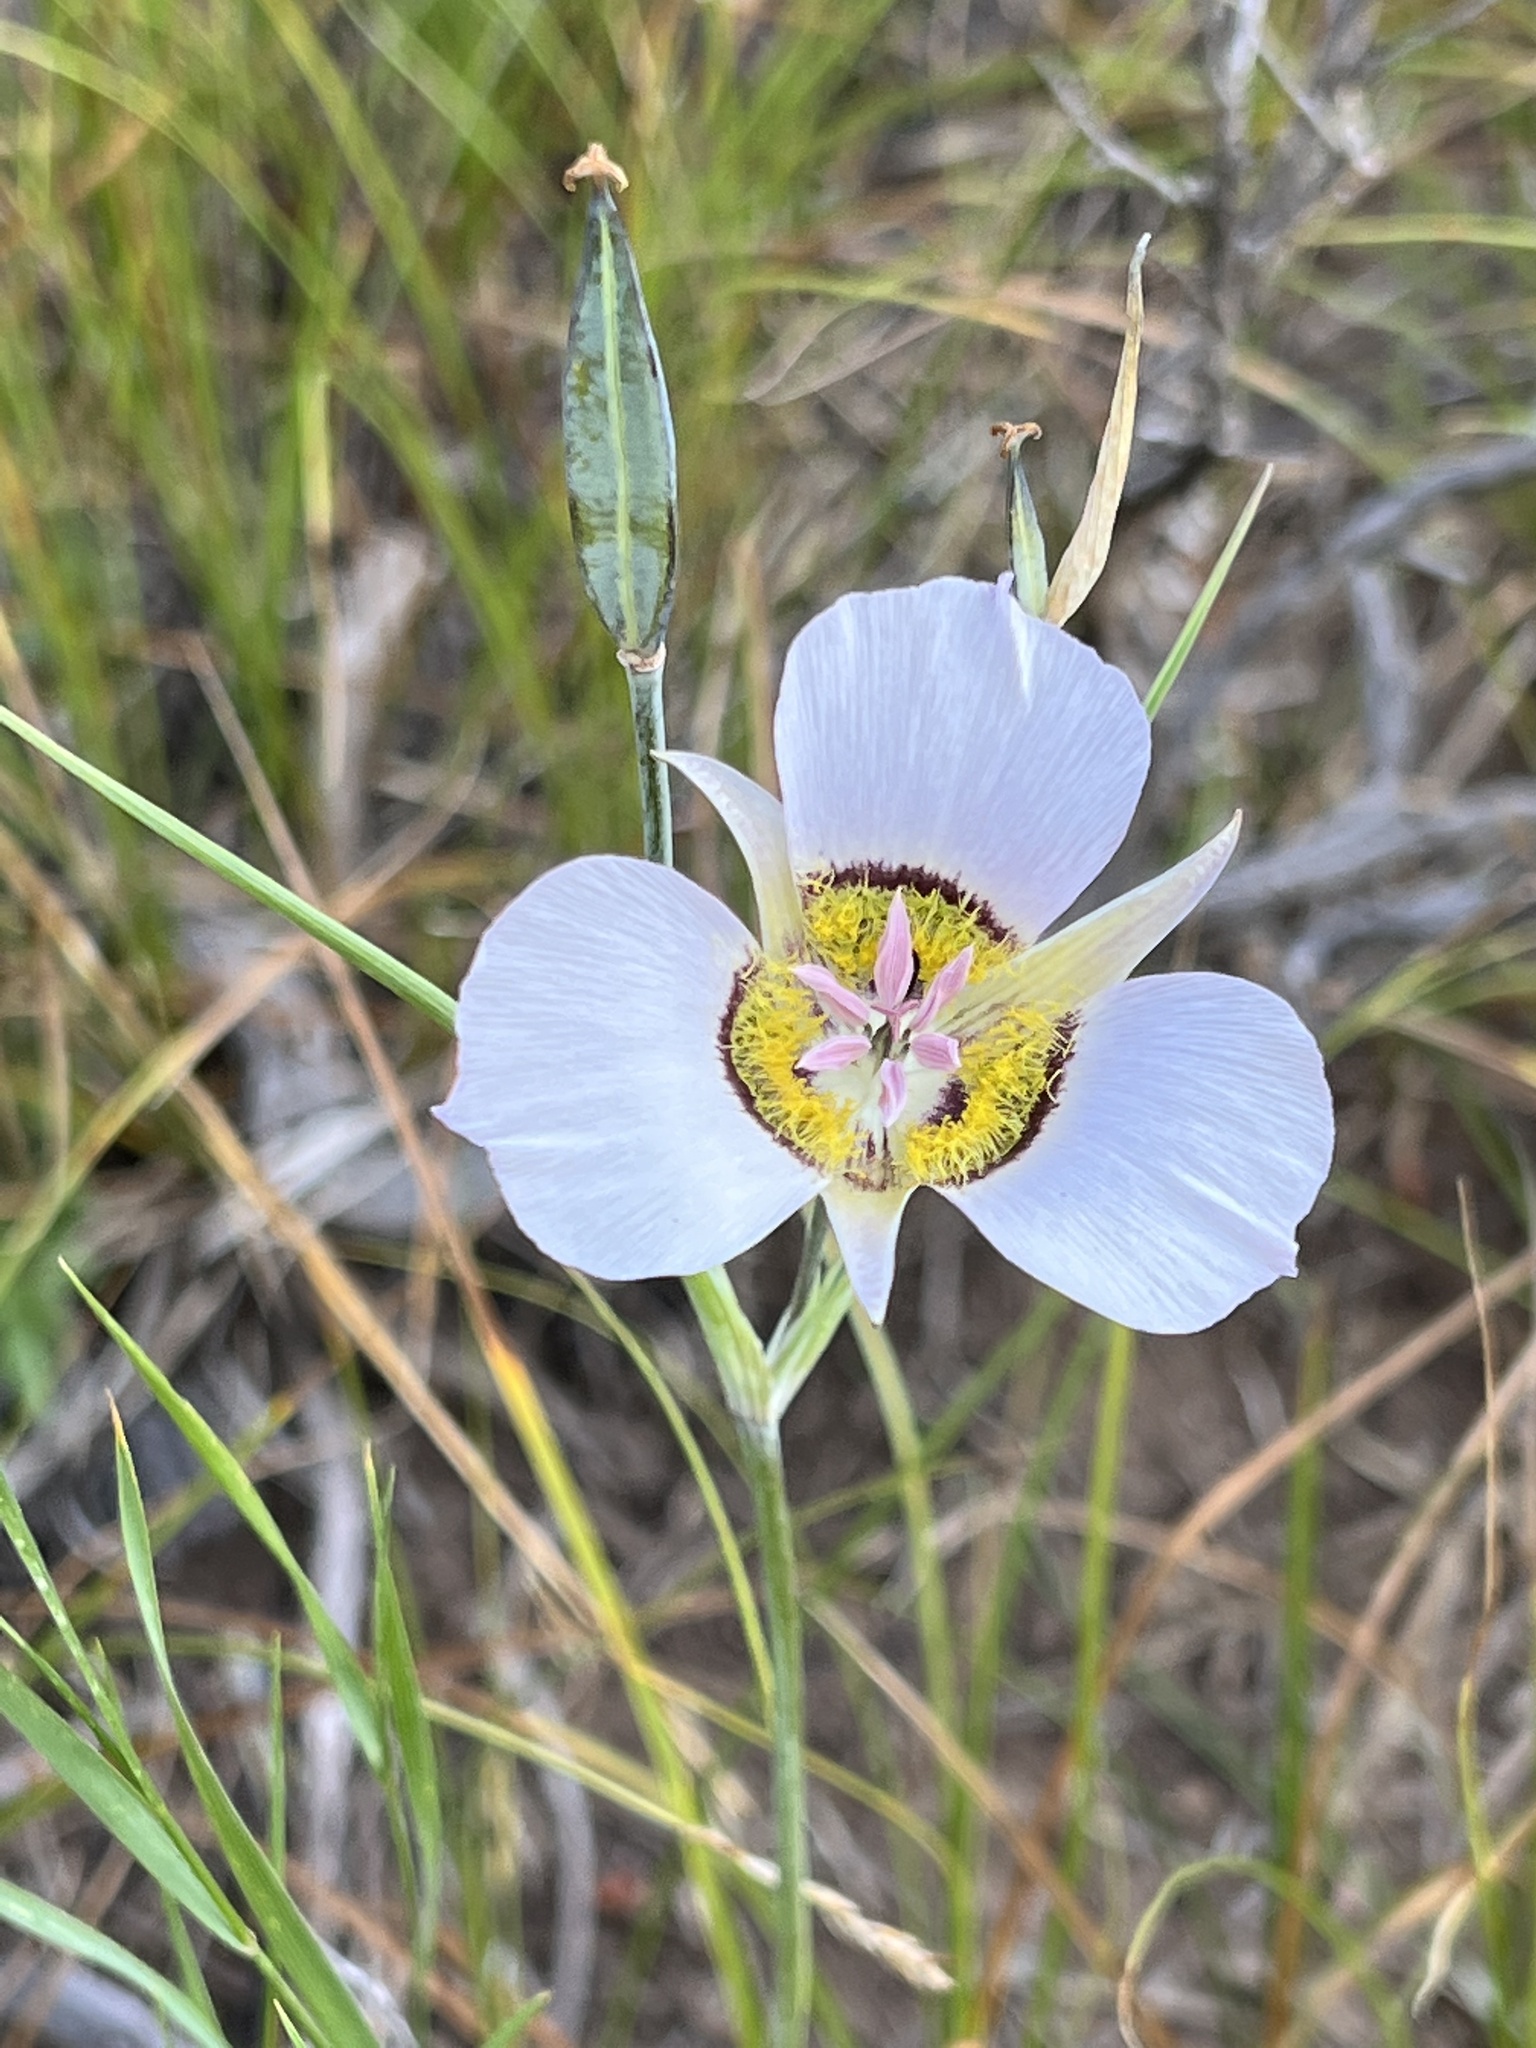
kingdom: Plantae
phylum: Tracheophyta
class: Liliopsida
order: Liliales
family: Liliaceae
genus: Calochortus
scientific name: Calochortus gunnisonii
